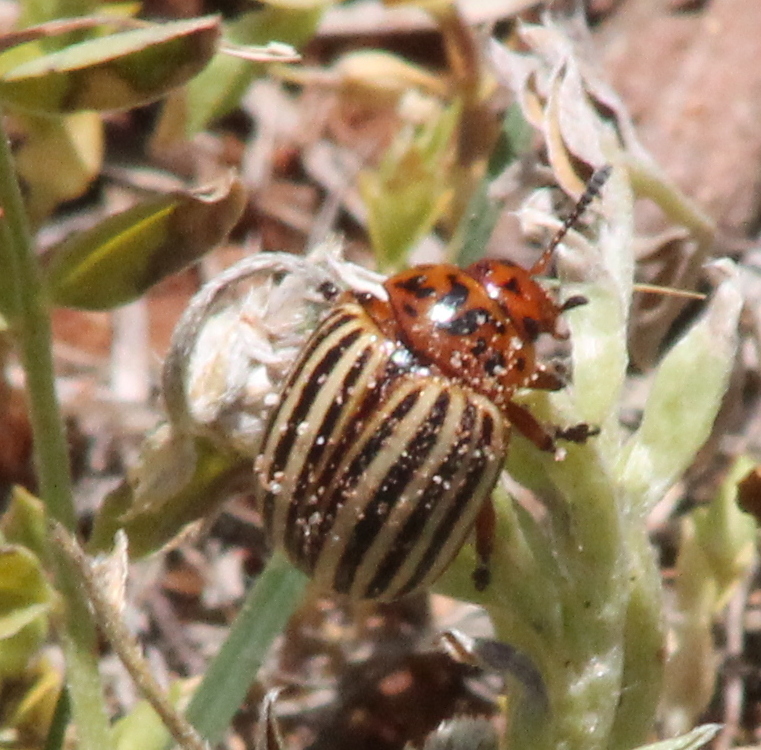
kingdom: Animalia
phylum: Arthropoda
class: Insecta
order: Coleoptera
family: Chrysomelidae
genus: Leptinotarsa
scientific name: Leptinotarsa decemlineata
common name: Colorado potato beetle
